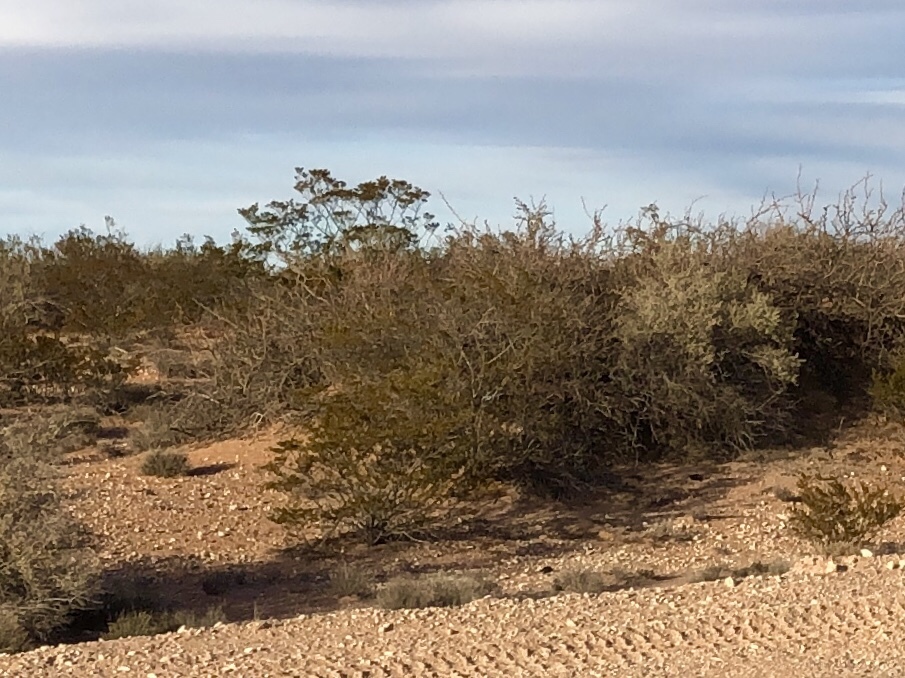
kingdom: Plantae
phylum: Tracheophyta
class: Magnoliopsida
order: Zygophyllales
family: Zygophyllaceae
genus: Larrea
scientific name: Larrea tridentata
